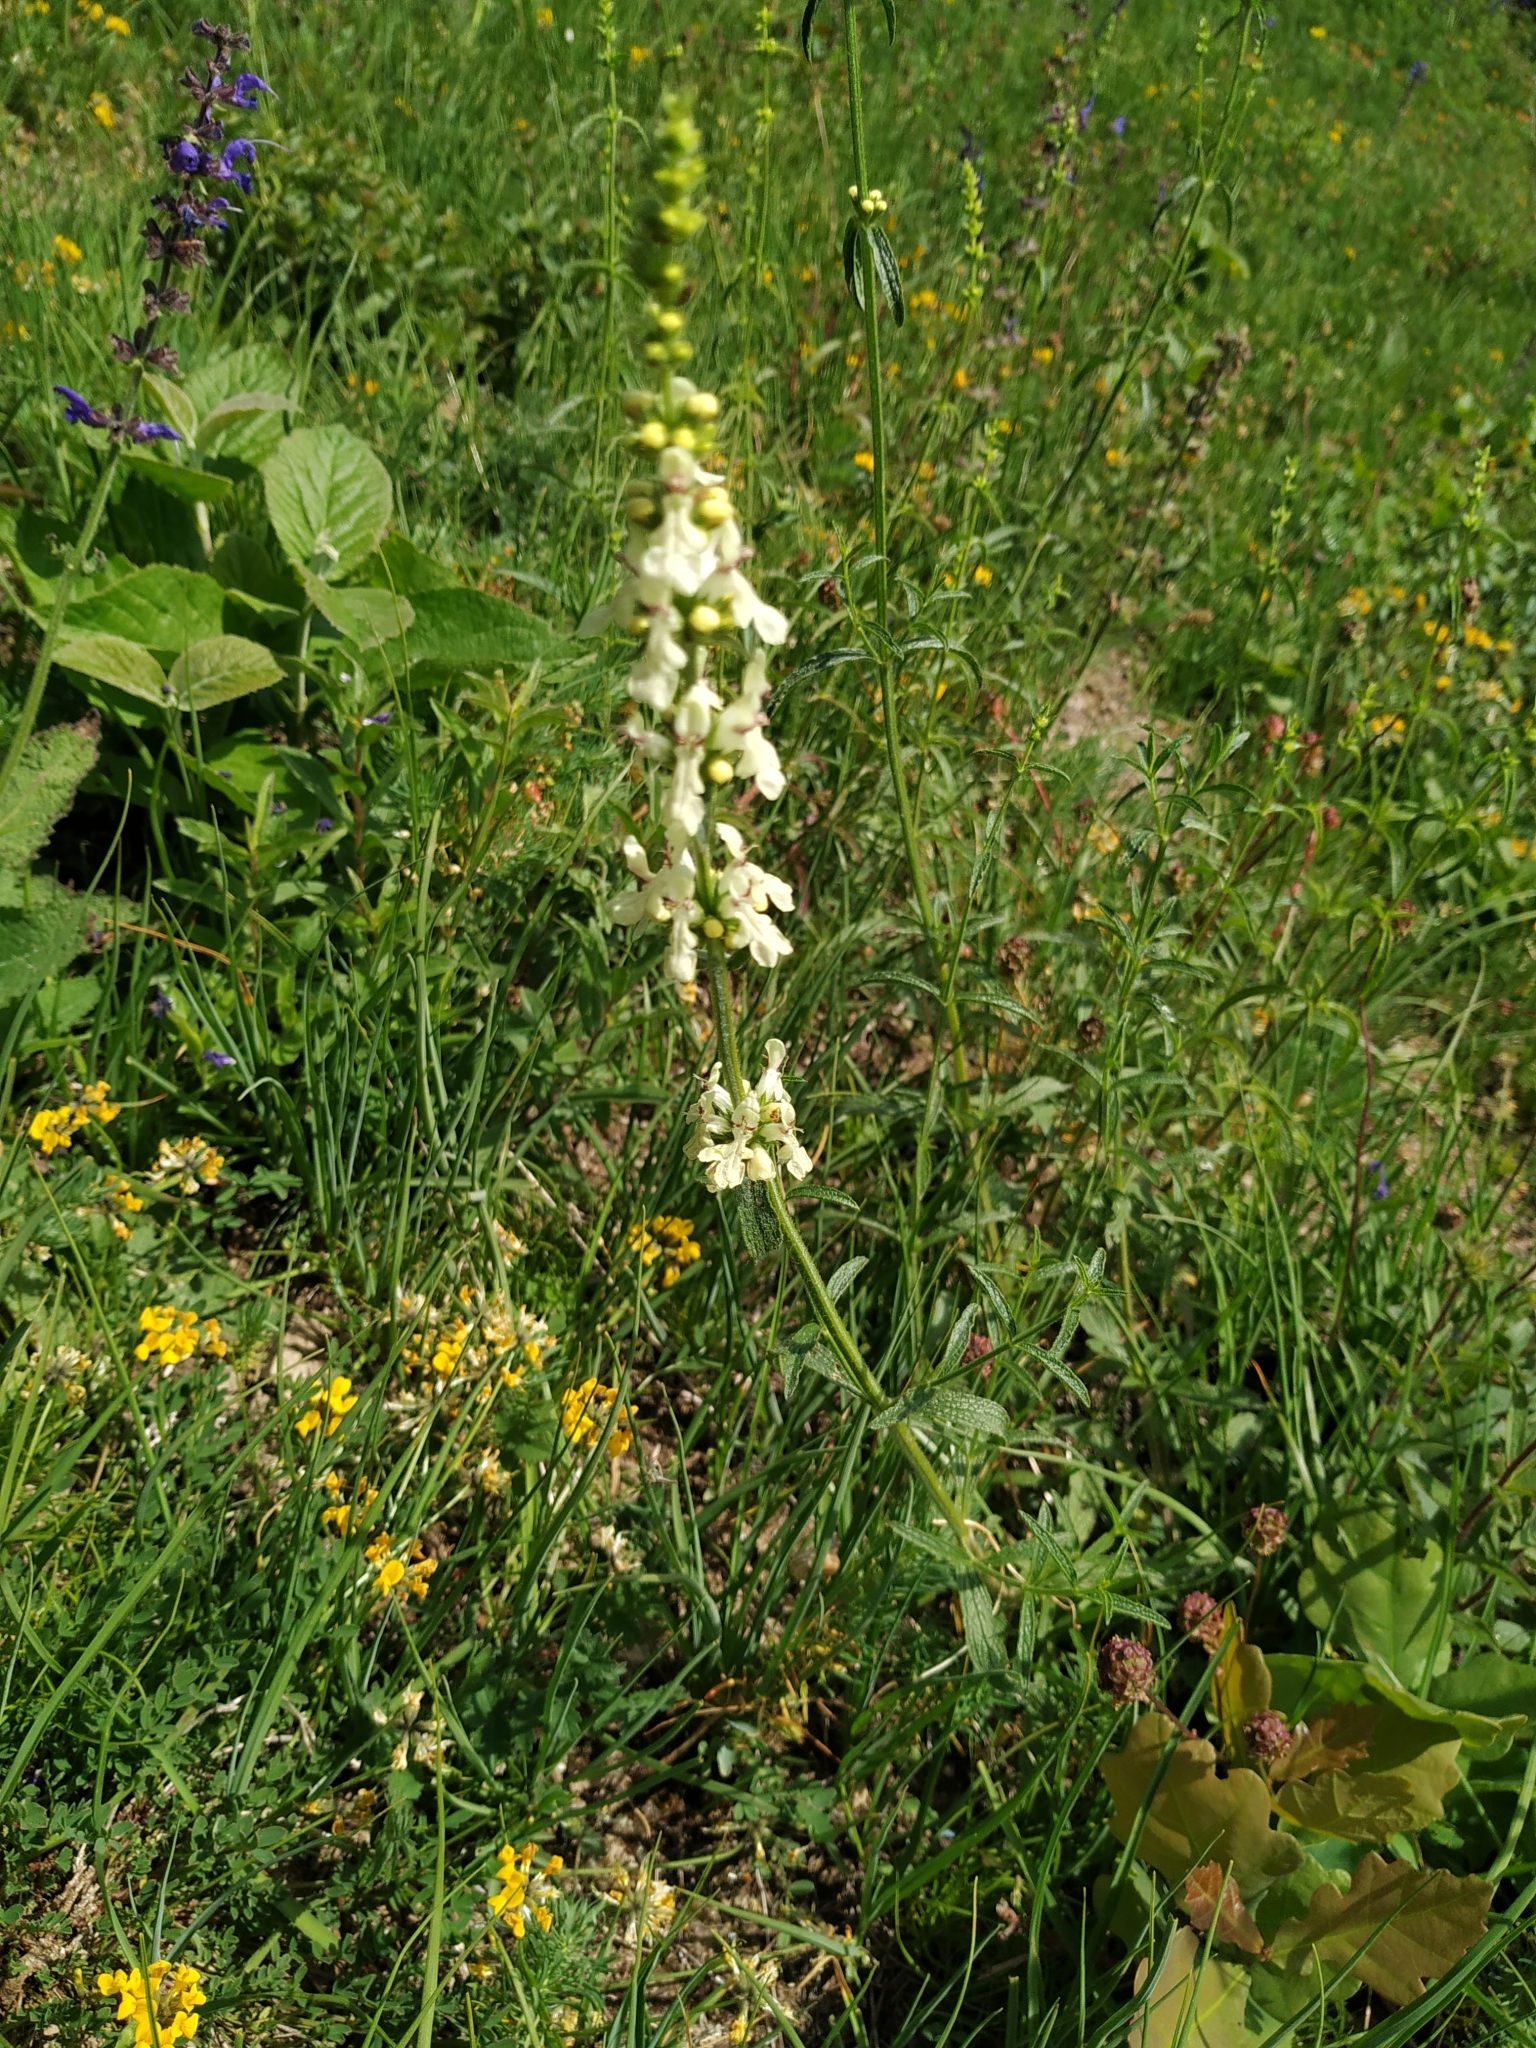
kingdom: Plantae
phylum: Tracheophyta
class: Magnoliopsida
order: Lamiales
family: Lamiaceae
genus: Stachys
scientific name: Stachys recta
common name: Perennial yellow-woundwort
